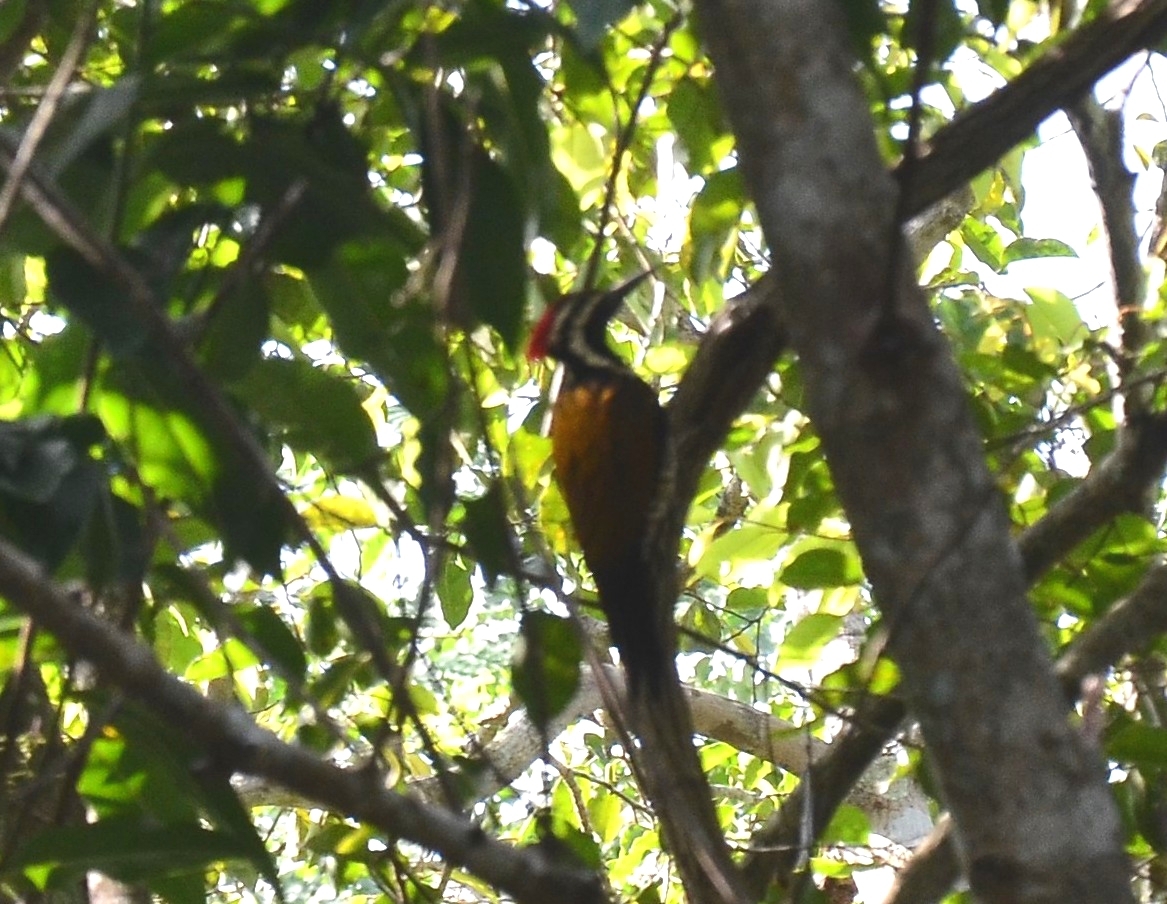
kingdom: Animalia
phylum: Chordata
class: Aves
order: Piciformes
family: Picidae
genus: Dinopium
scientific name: Dinopium benghalense
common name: Black-rumped flameback
